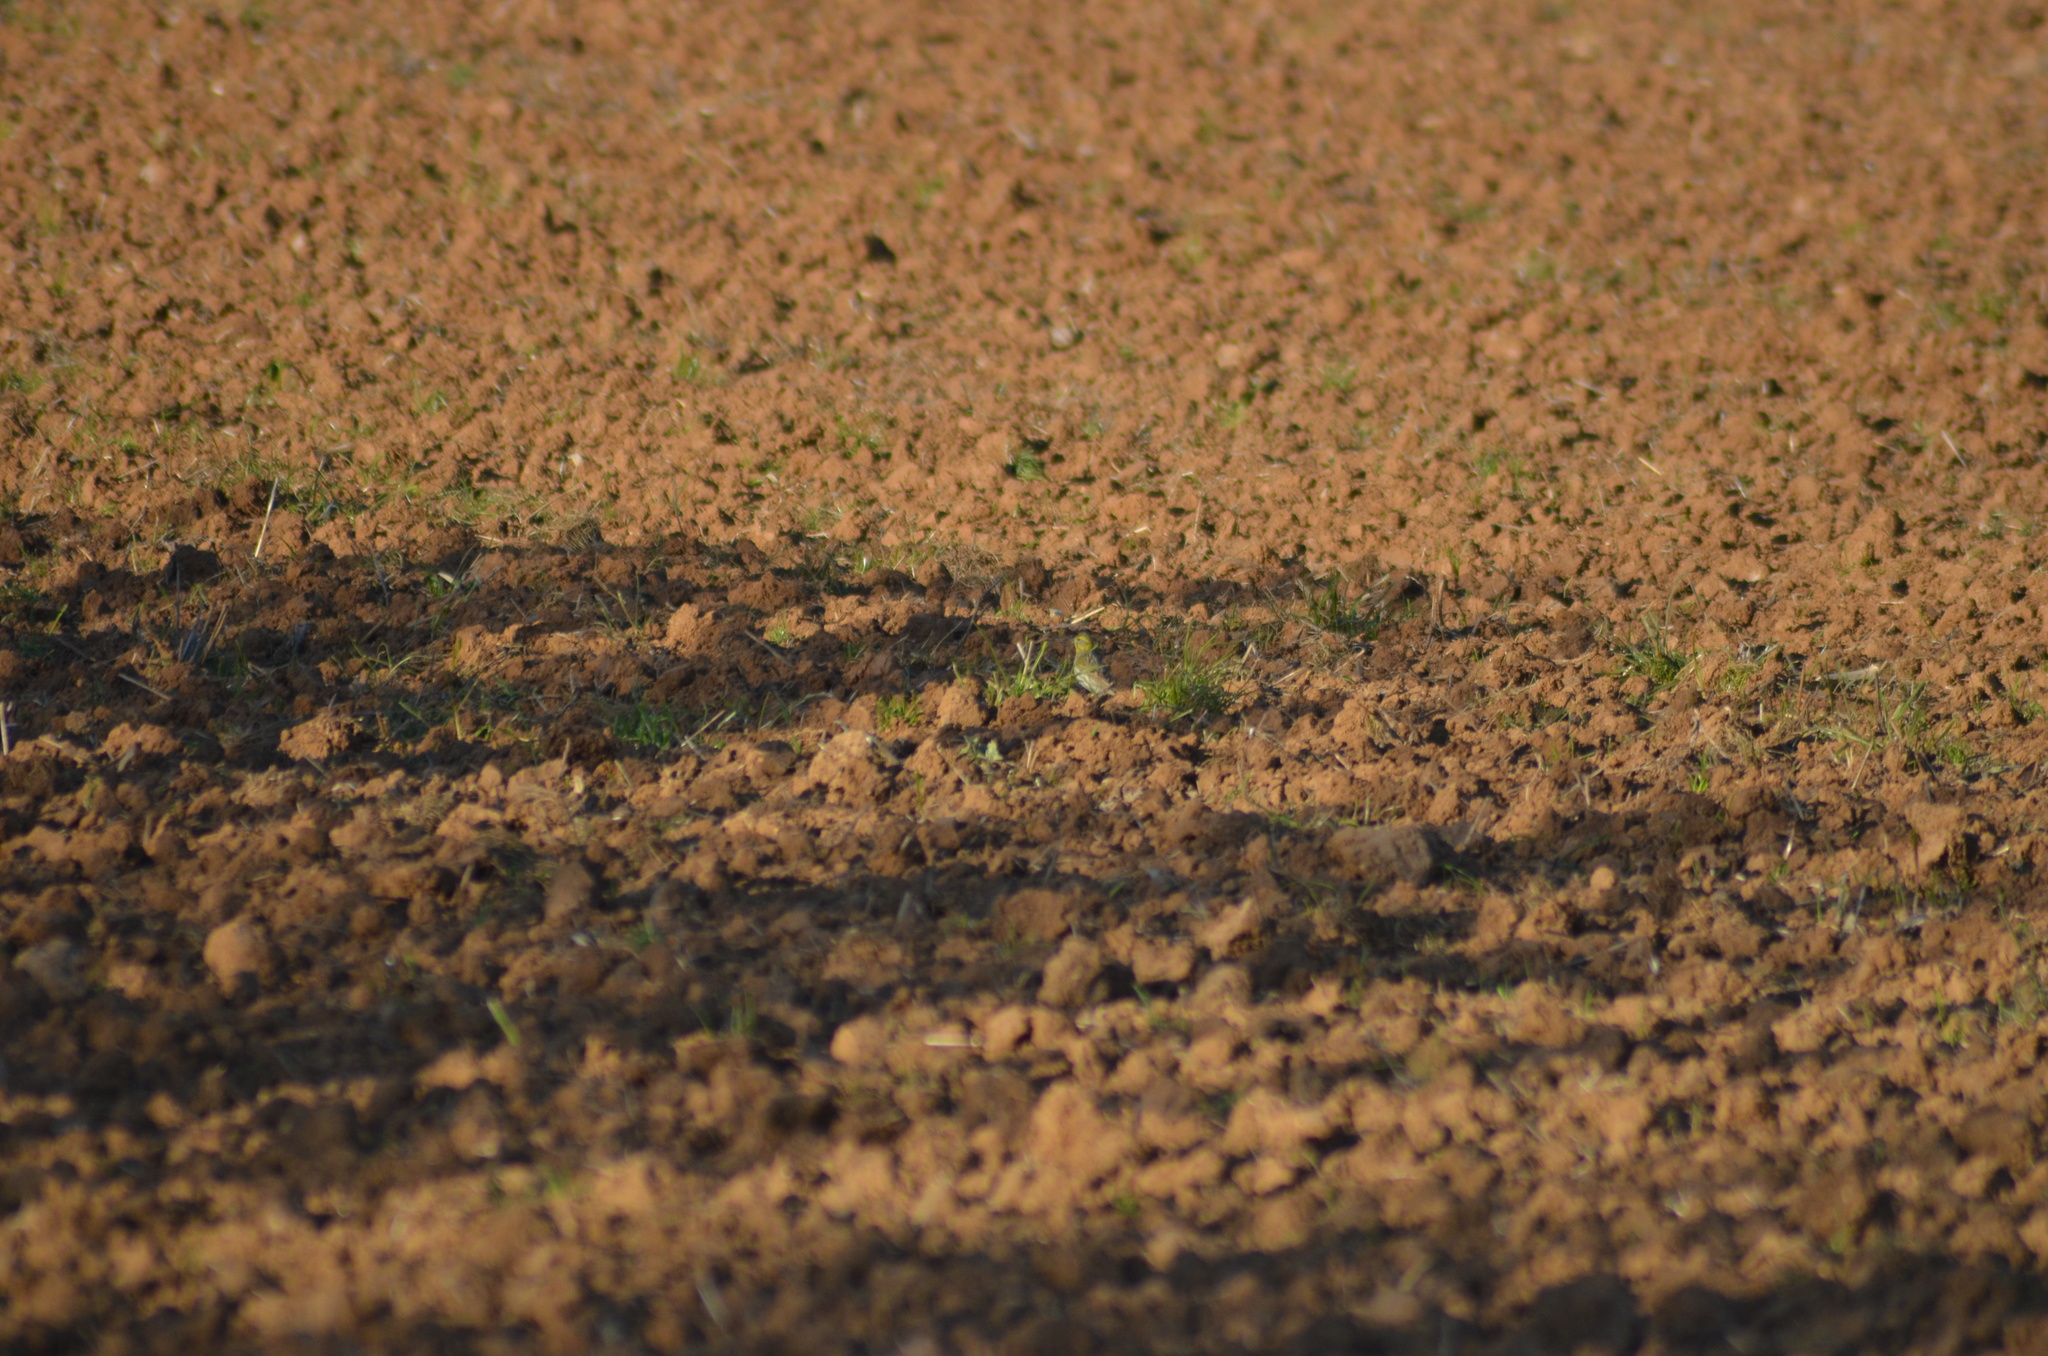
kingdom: Animalia
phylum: Chordata
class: Aves
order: Passeriformes
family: Fringillidae
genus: Serinus
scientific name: Serinus serinus
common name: European serin
